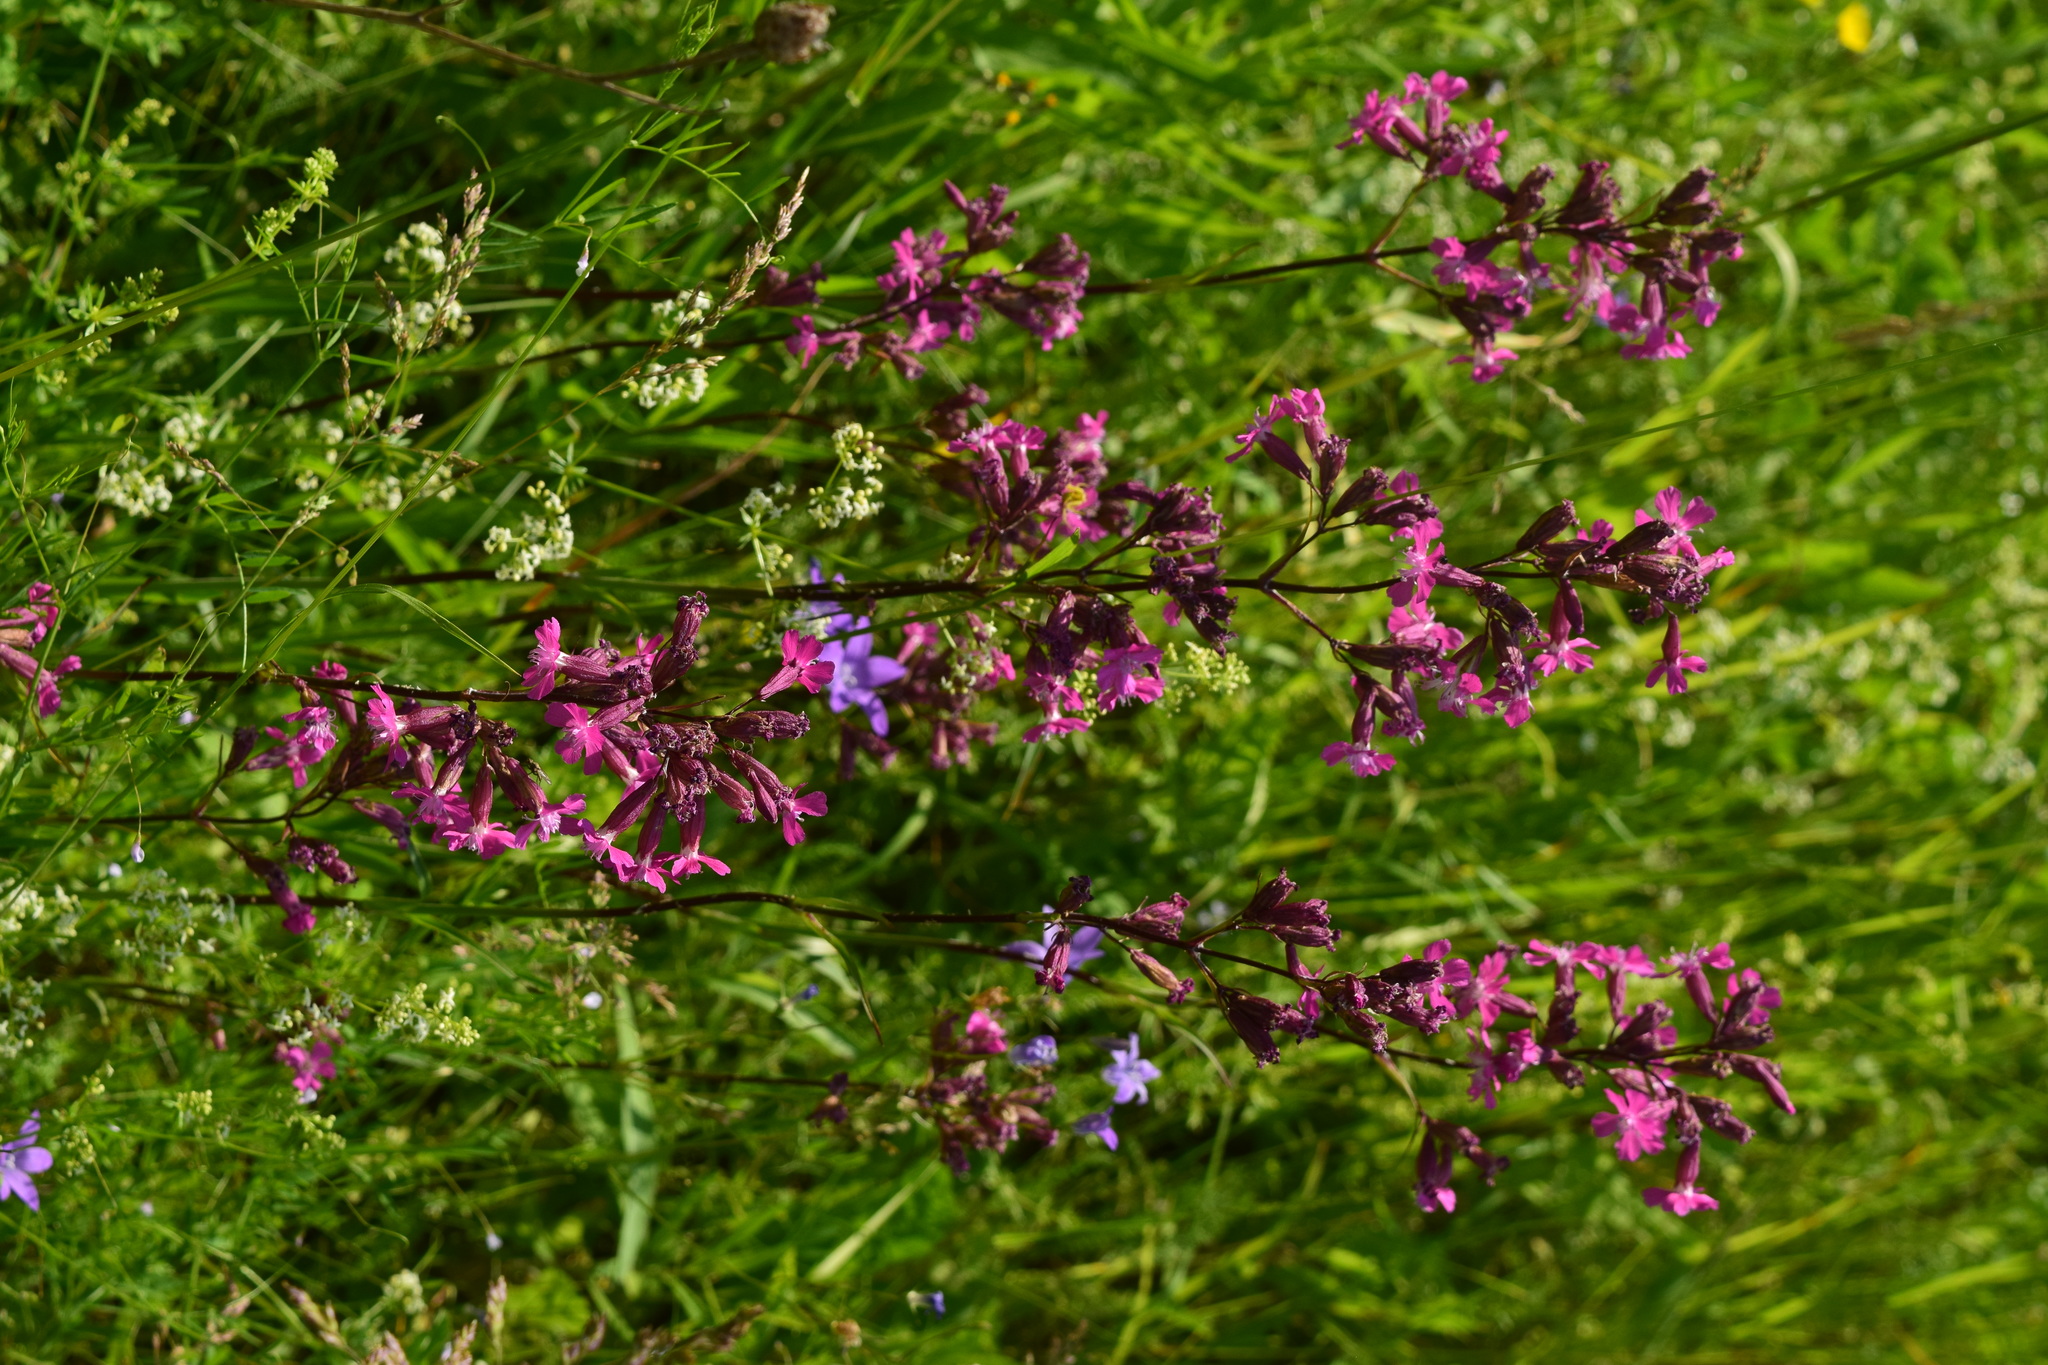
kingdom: Plantae
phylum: Tracheophyta
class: Magnoliopsida
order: Caryophyllales
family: Caryophyllaceae
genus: Viscaria
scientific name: Viscaria vulgaris
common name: Clammy campion
